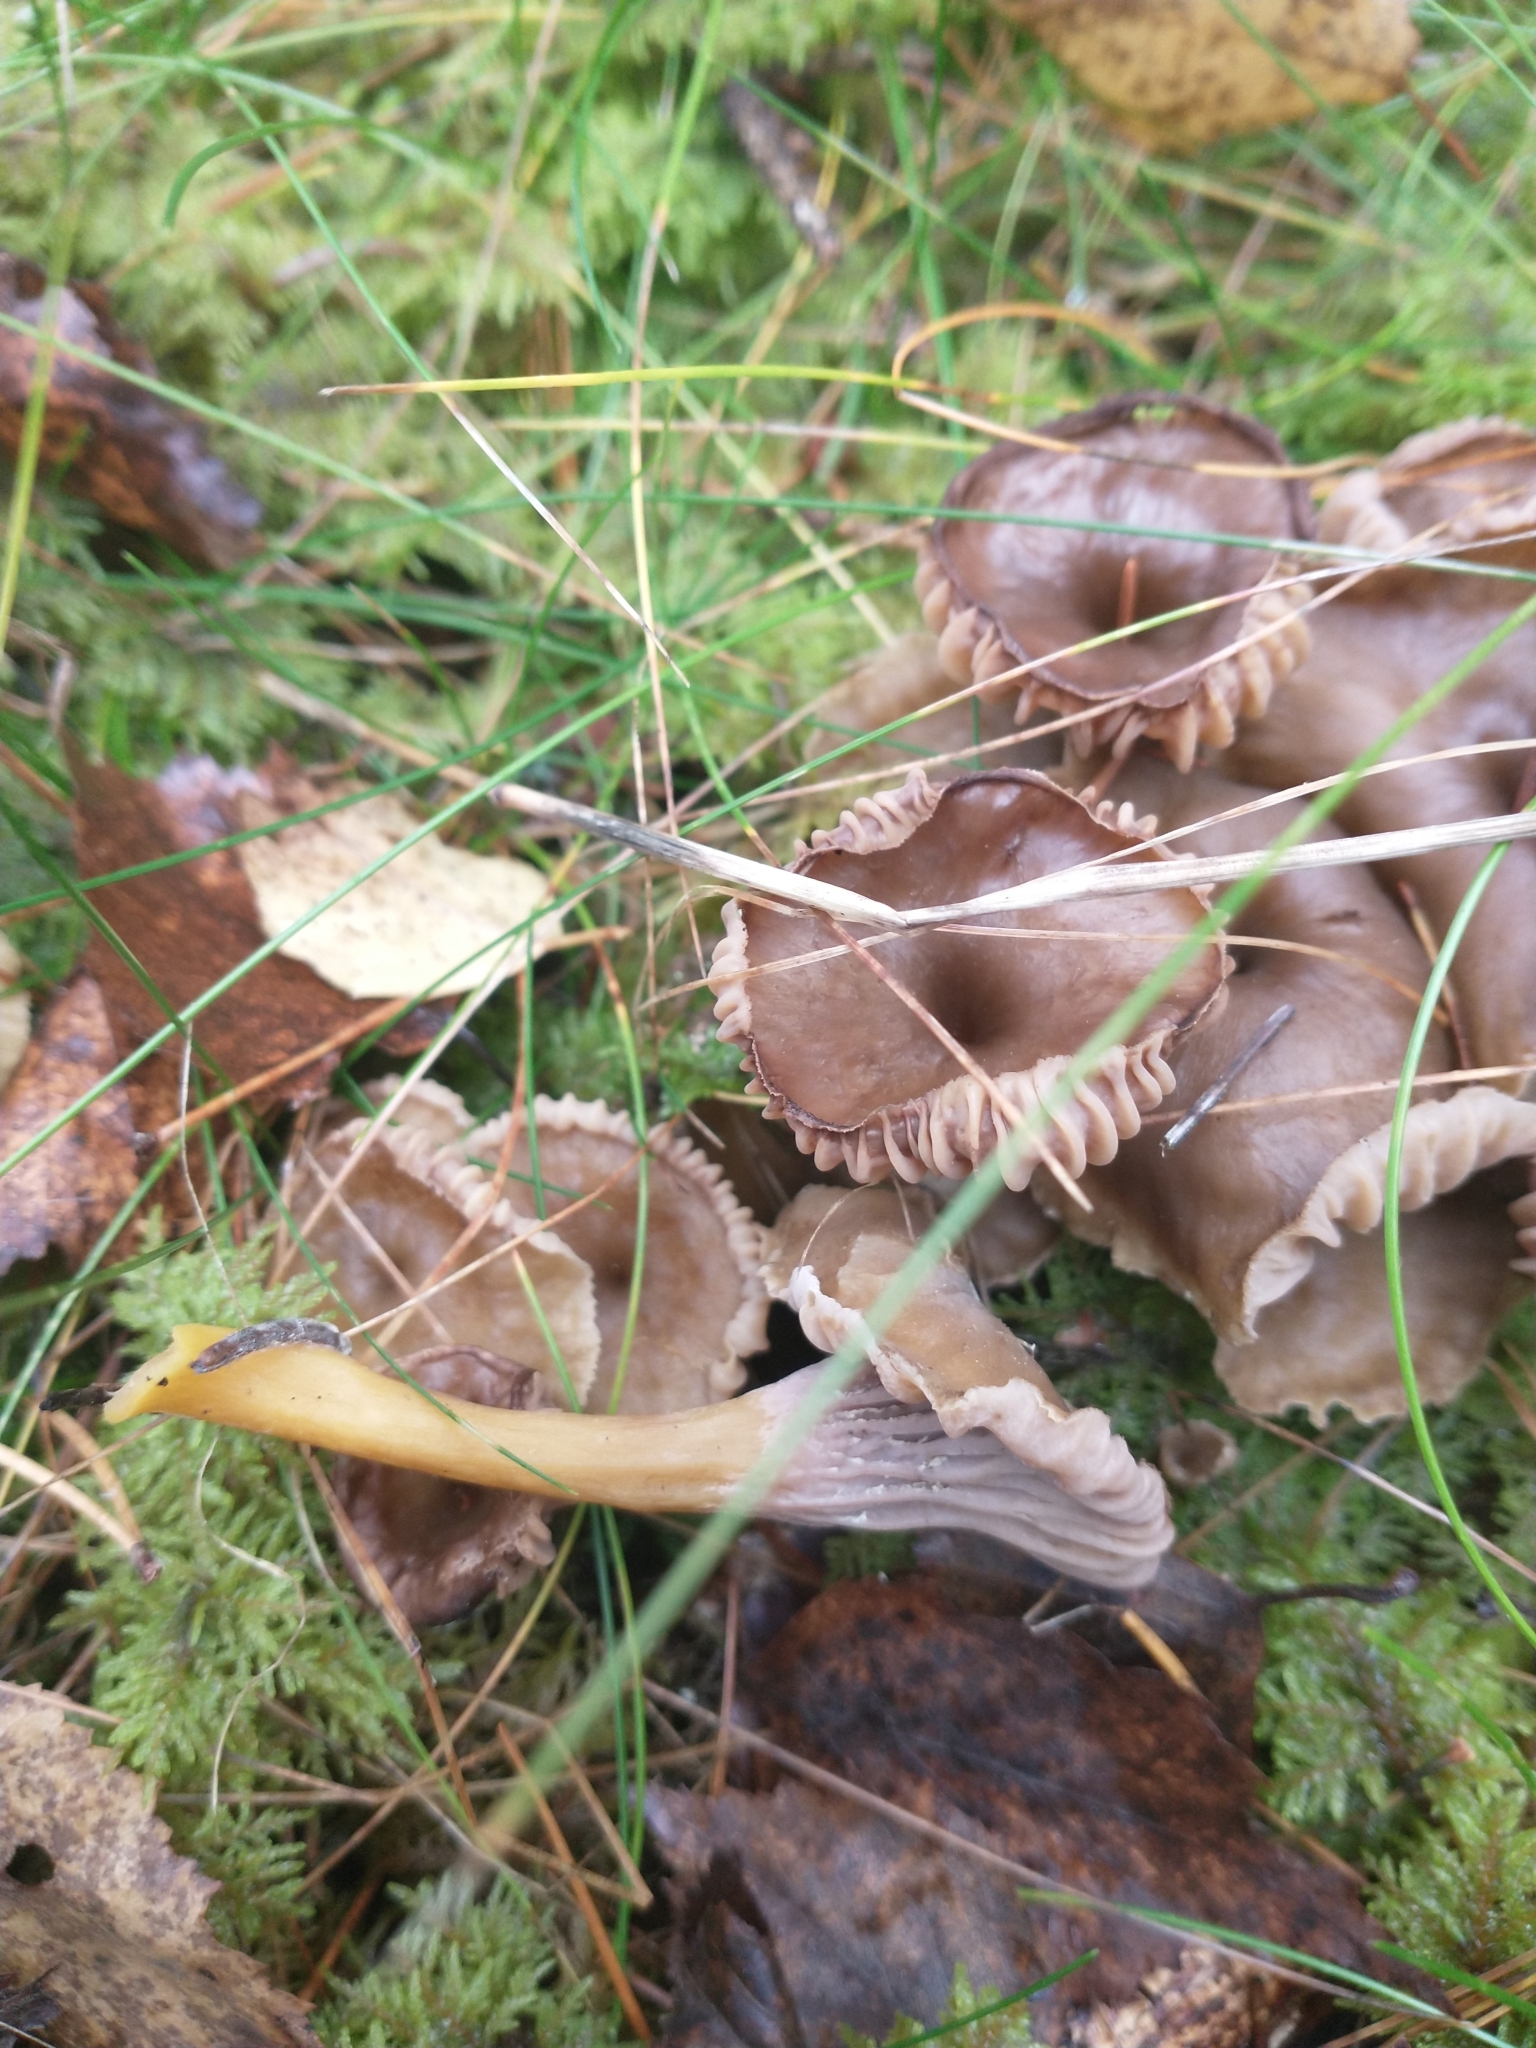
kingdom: Fungi
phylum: Basidiomycota
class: Agaricomycetes
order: Cantharellales
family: Hydnaceae
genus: Craterellus
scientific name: Craterellus tubaeformis
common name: Yellowfoot
